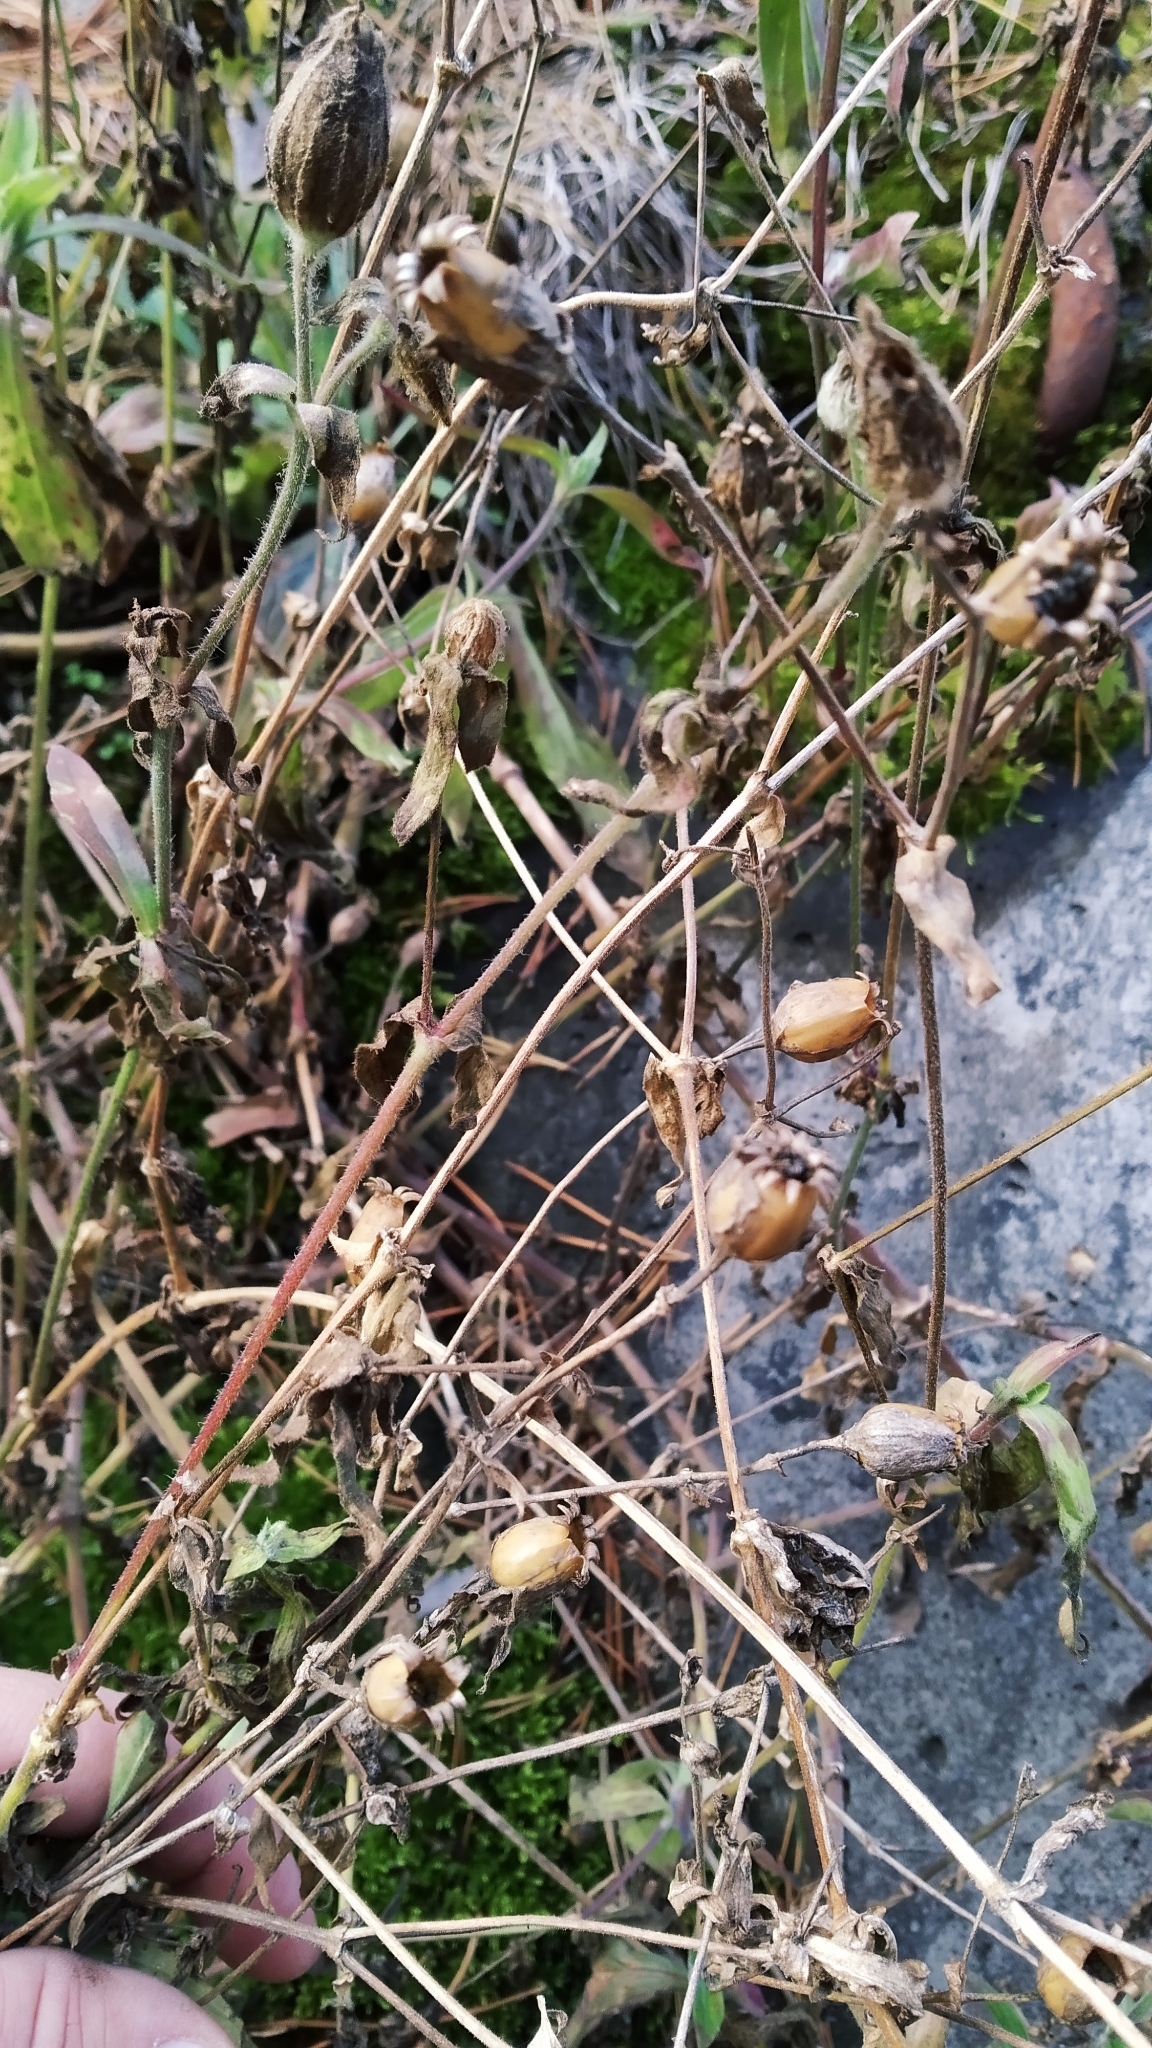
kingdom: Plantae
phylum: Tracheophyta
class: Magnoliopsida
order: Caryophyllales
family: Caryophyllaceae
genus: Silene
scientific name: Silene latifolia
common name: White campion
